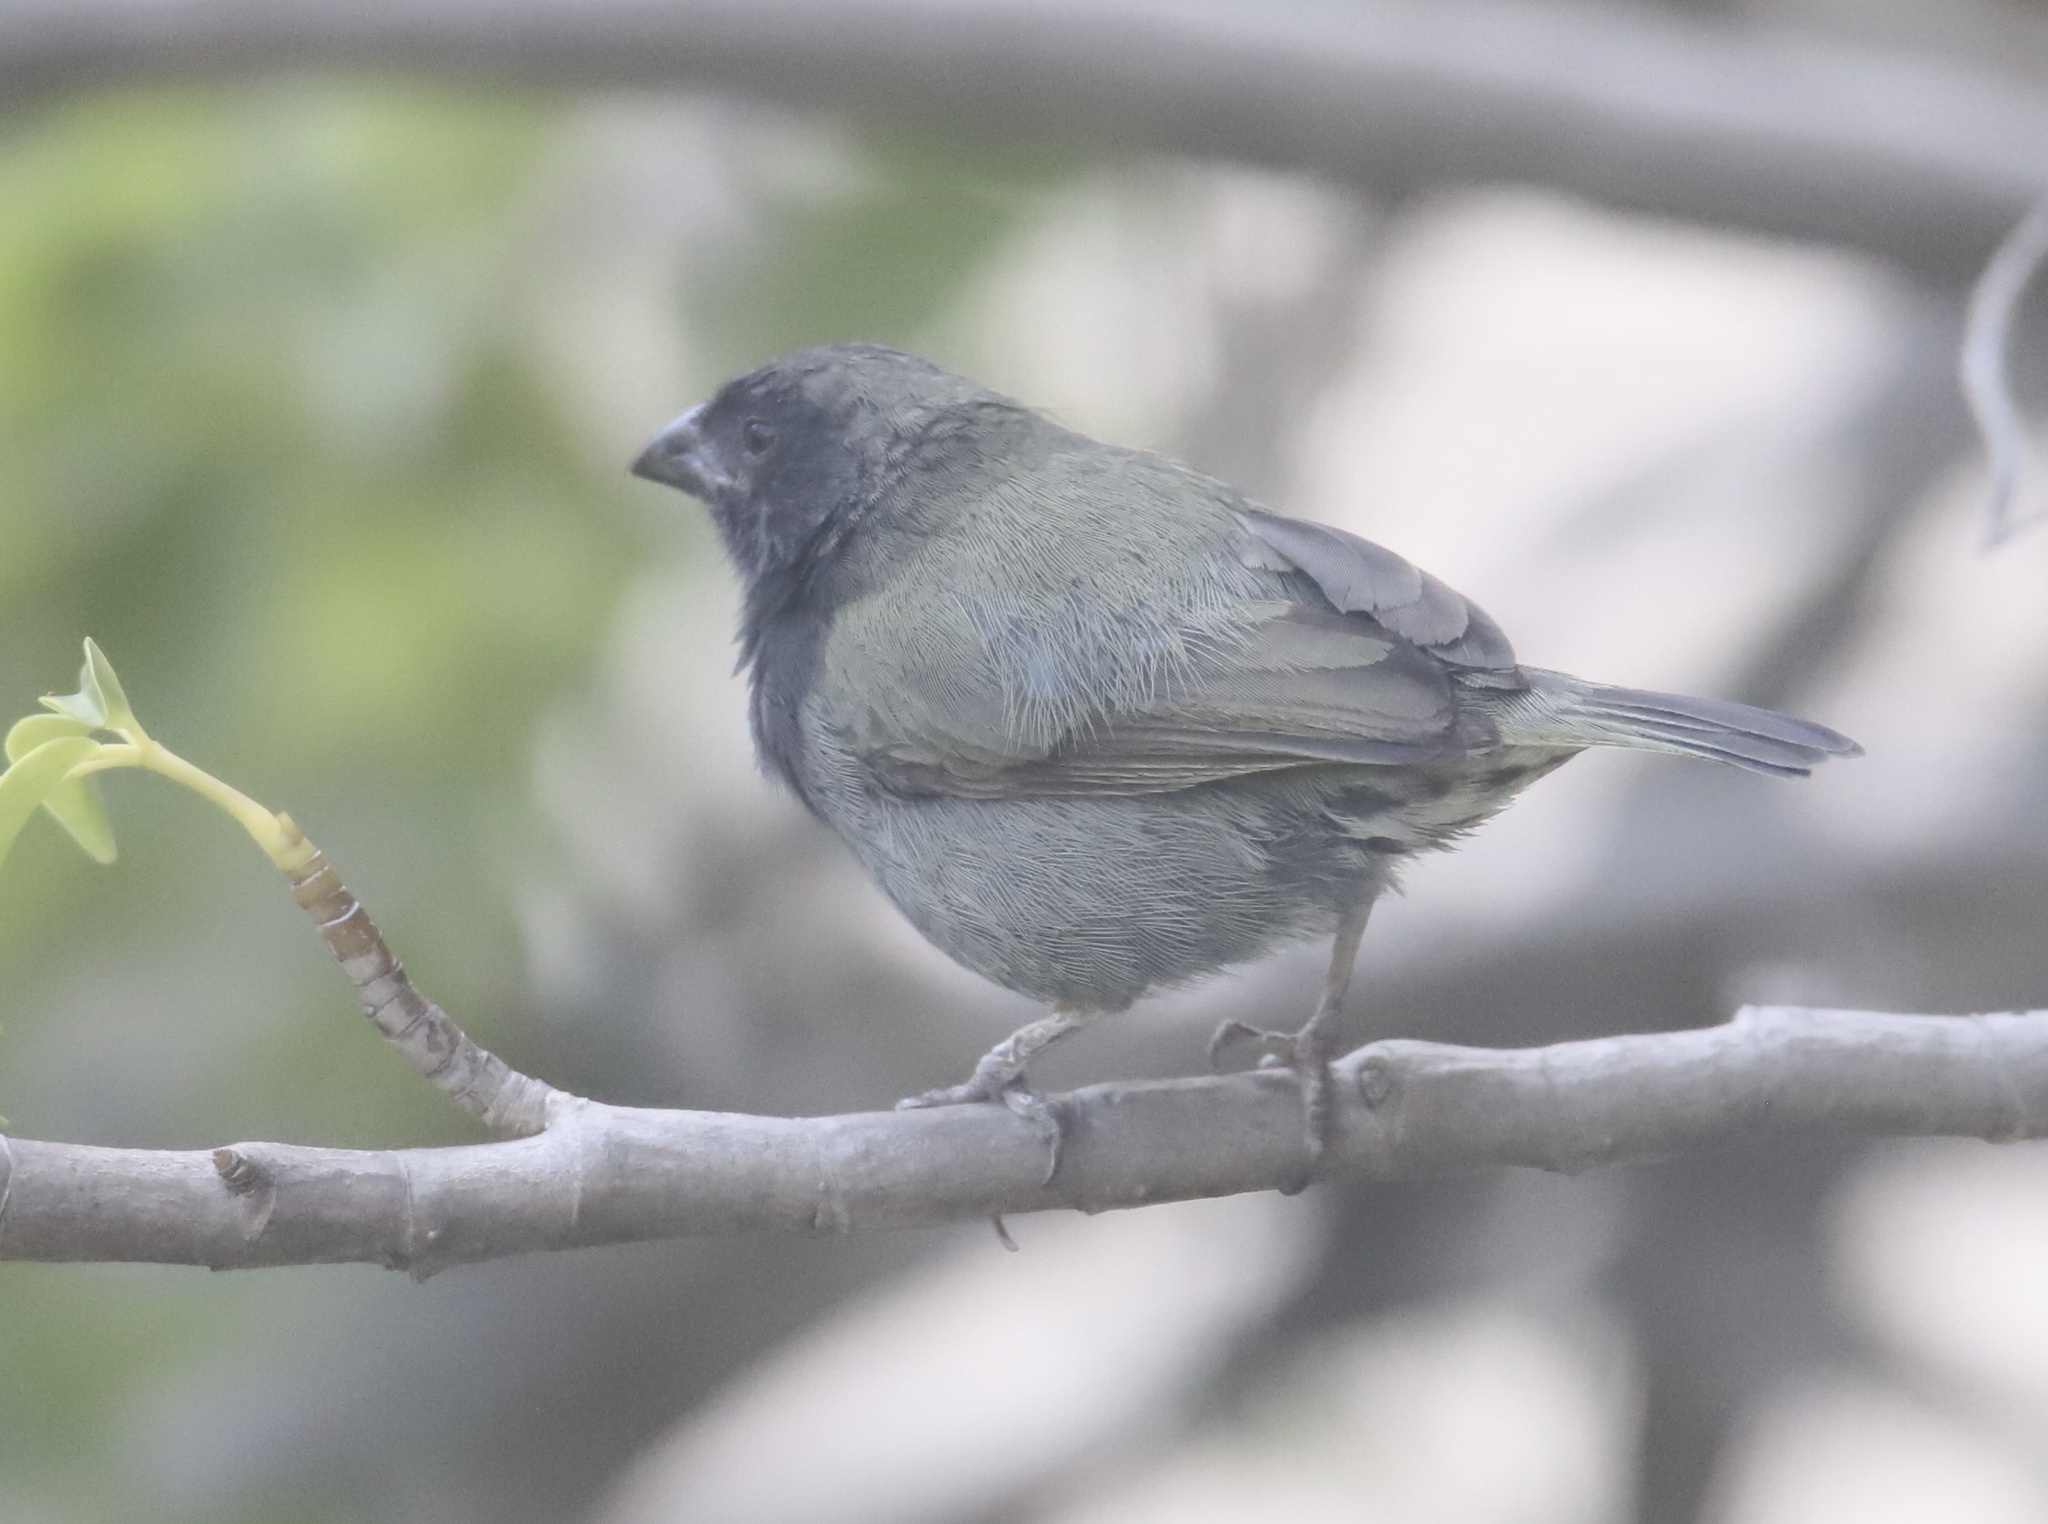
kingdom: Animalia
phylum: Chordata
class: Aves
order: Passeriformes
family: Thraupidae
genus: Melanospiza
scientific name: Melanospiza bicolor
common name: Black-faced grassquit
